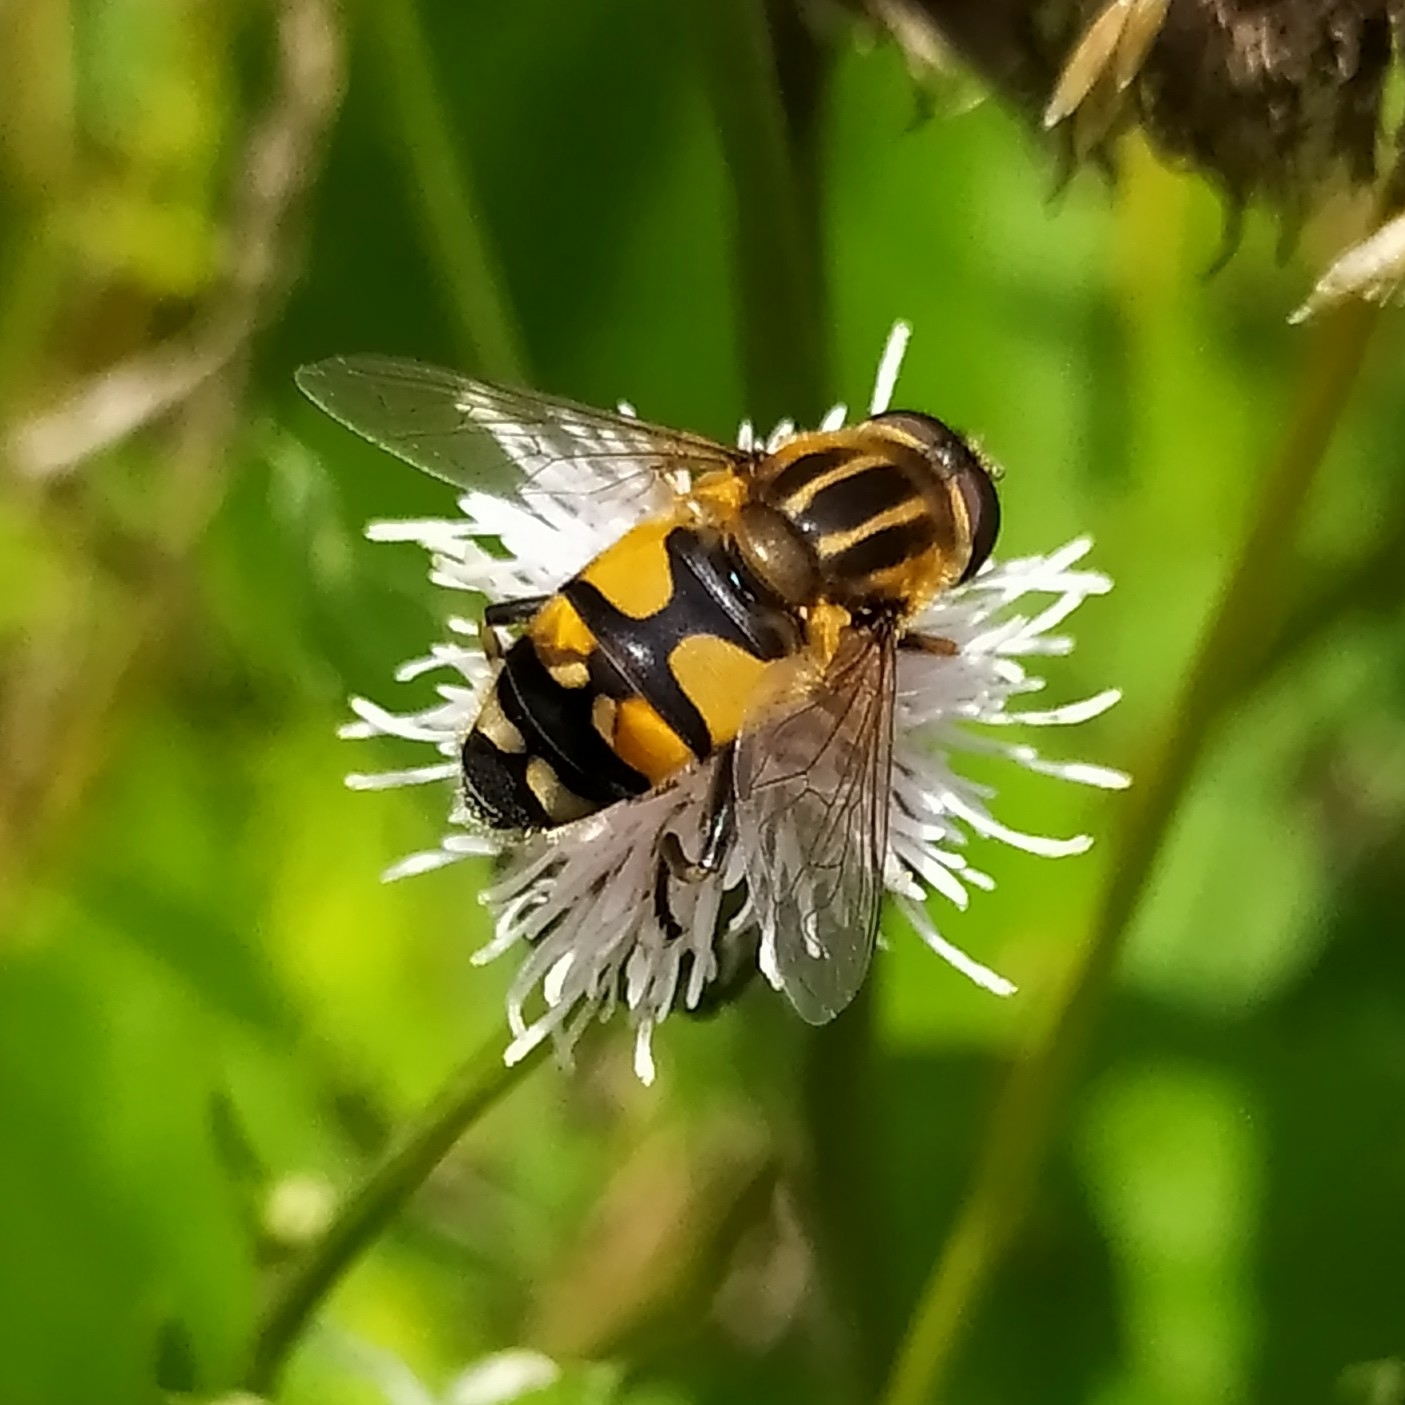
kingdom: Animalia
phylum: Arthropoda
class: Insecta
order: Diptera
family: Syrphidae
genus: Helophilus
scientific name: Helophilus affinis
